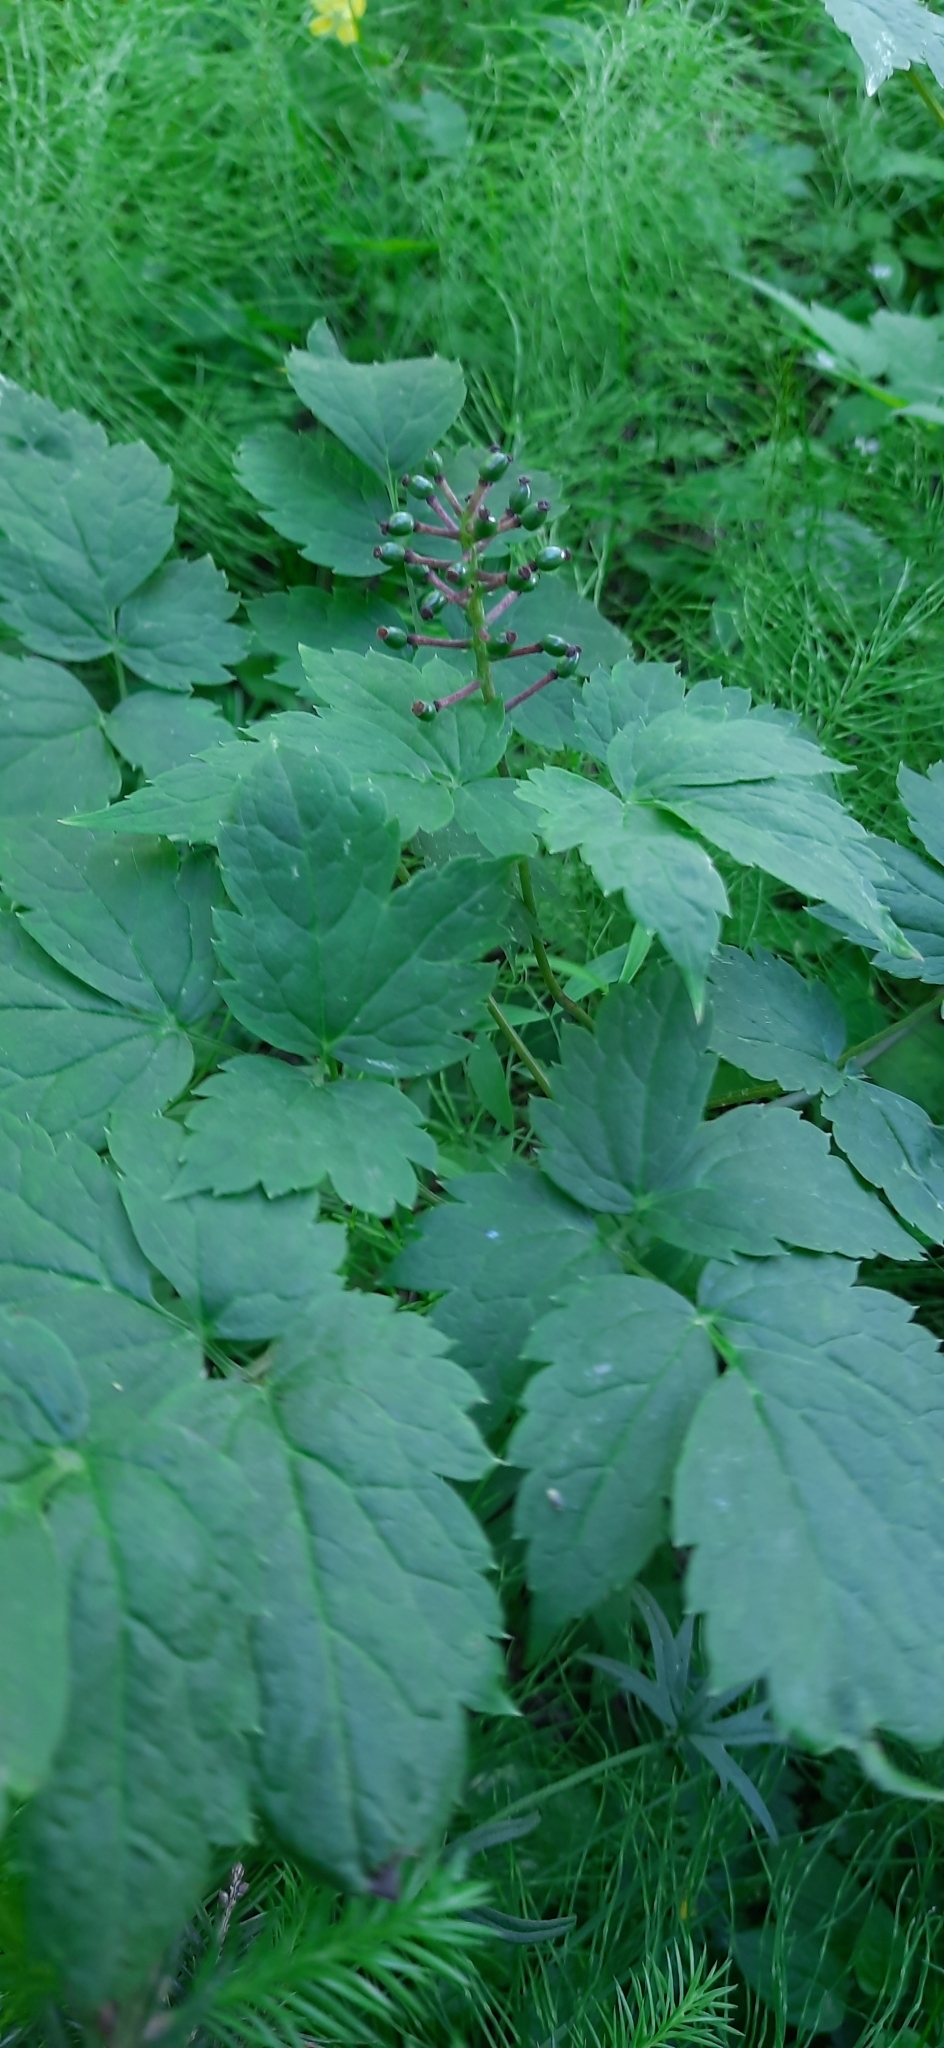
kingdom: Plantae
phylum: Tracheophyta
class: Magnoliopsida
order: Ranunculales
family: Ranunculaceae
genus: Actaea
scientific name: Actaea spicata
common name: Baneberry
